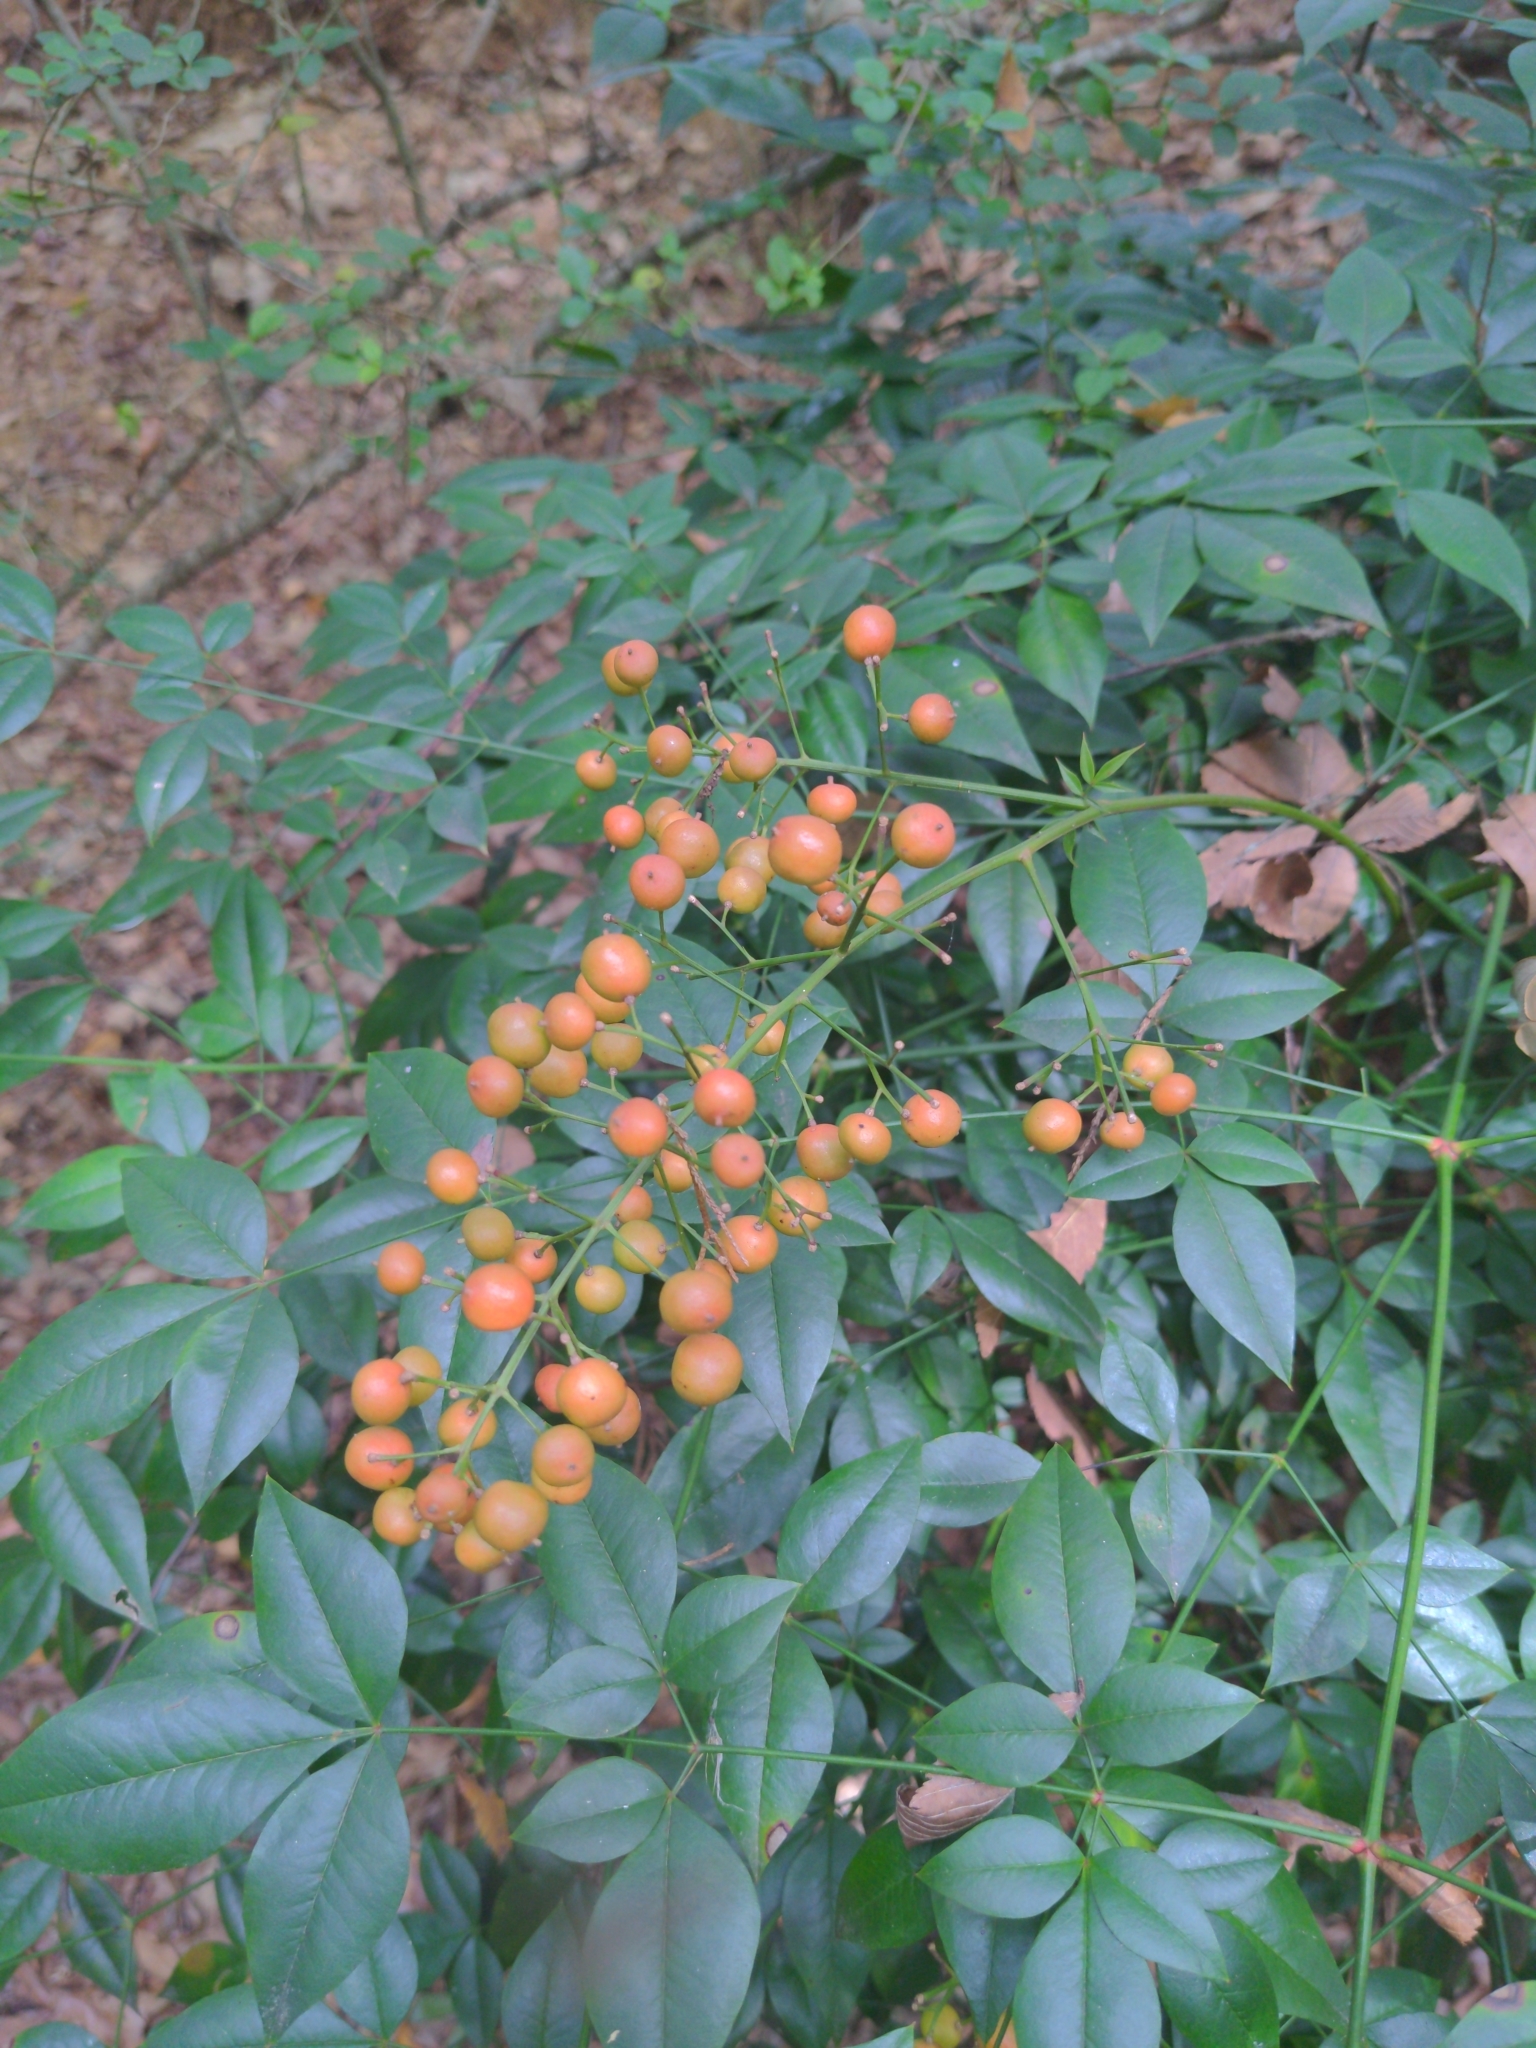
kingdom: Plantae
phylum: Tracheophyta
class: Magnoliopsida
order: Ranunculales
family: Berberidaceae
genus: Nandina
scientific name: Nandina domestica
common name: Sacred bamboo
